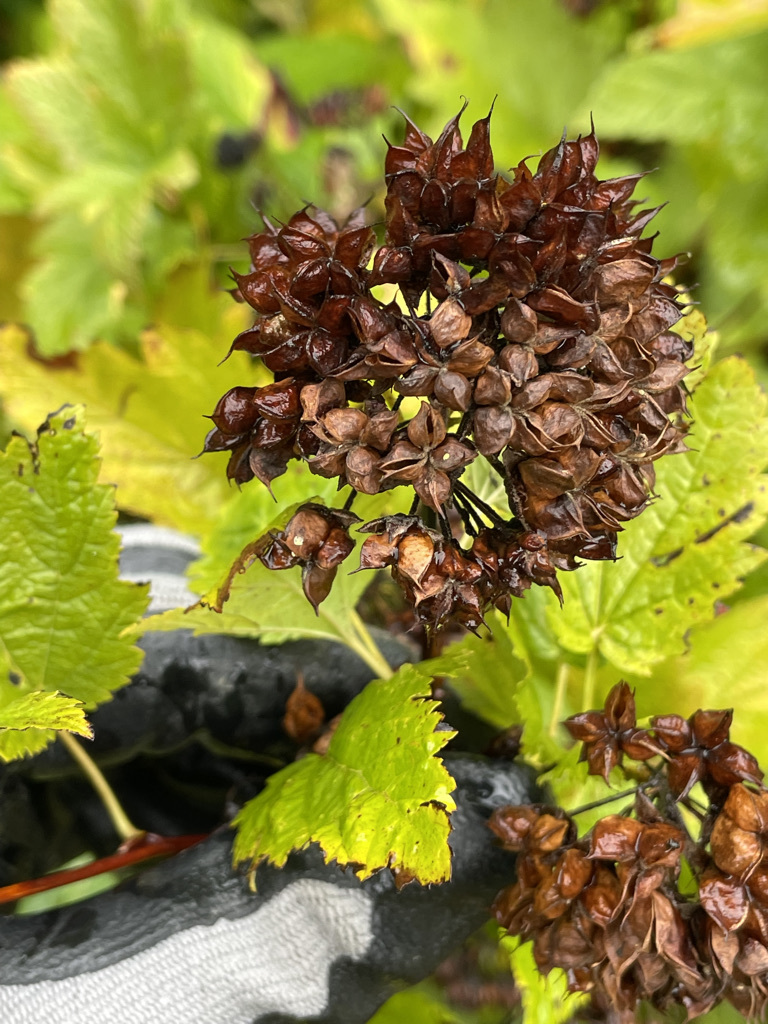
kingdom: Plantae
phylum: Tracheophyta
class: Magnoliopsida
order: Rosales
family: Rosaceae
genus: Physocarpus
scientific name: Physocarpus capitatus
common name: Pacific ninebark
